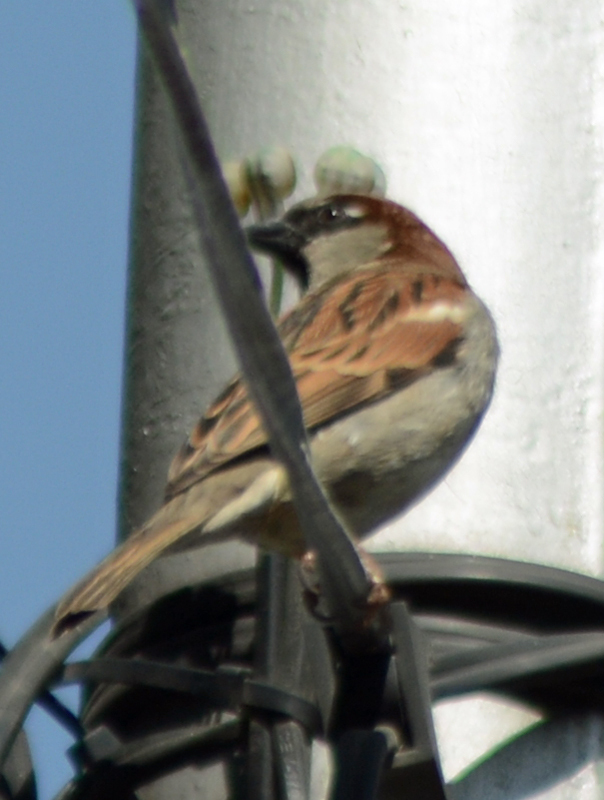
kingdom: Animalia
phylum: Chordata
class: Aves
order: Passeriformes
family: Passeridae
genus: Passer
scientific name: Passer domesticus
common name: House sparrow
